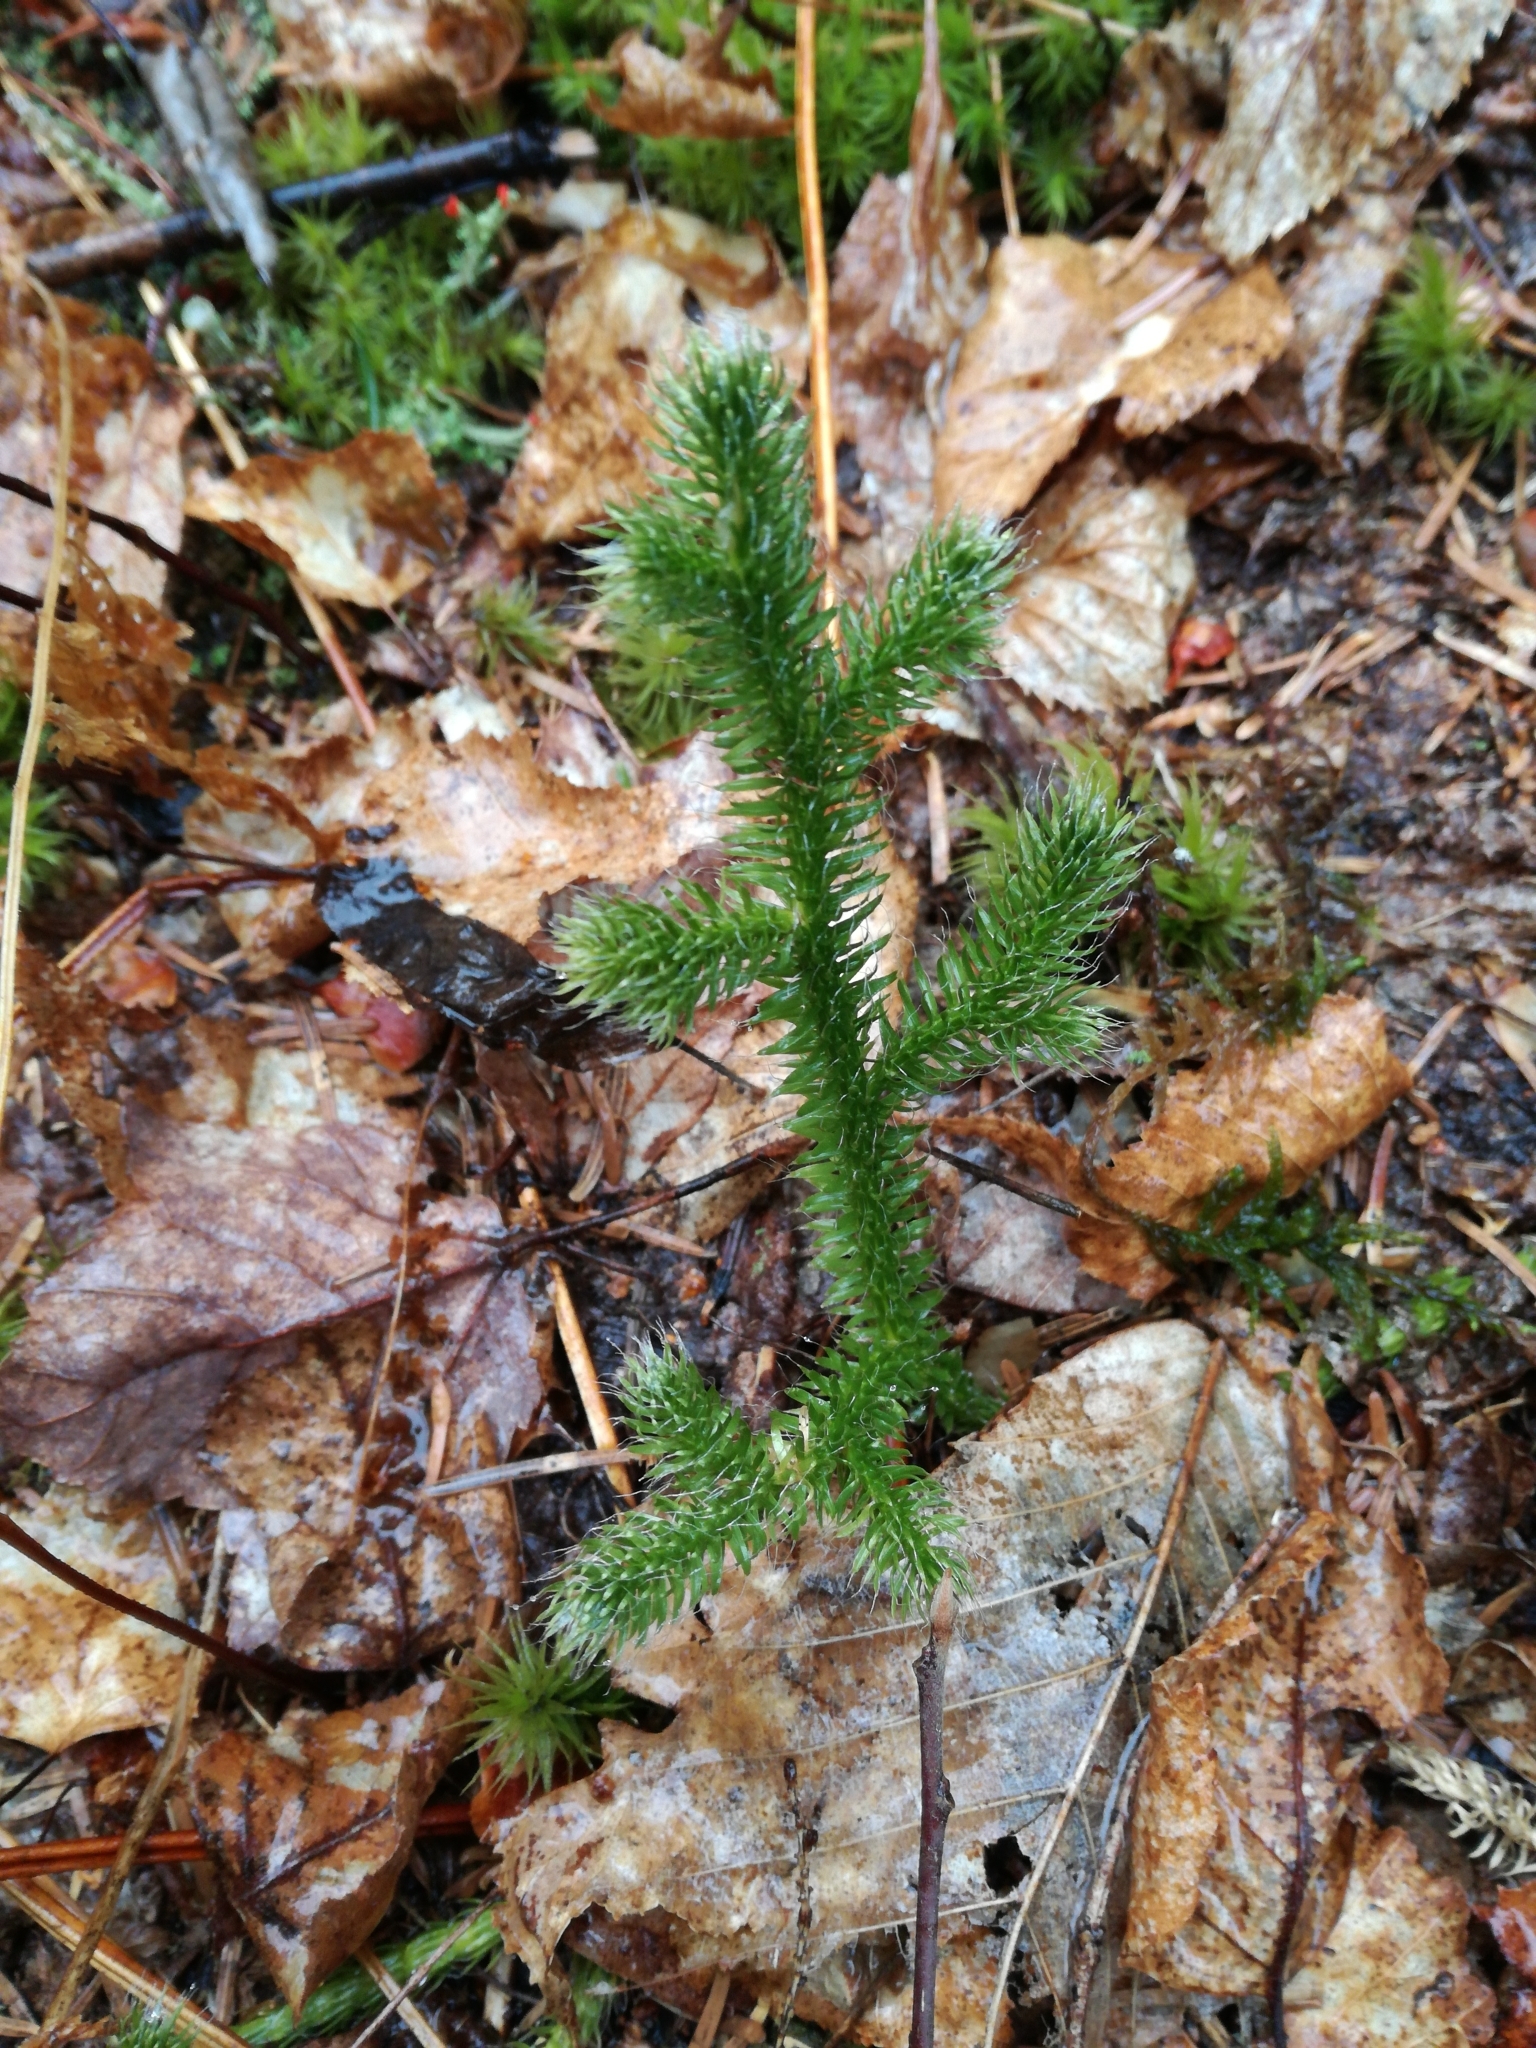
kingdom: Plantae
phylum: Tracheophyta
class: Lycopodiopsida
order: Lycopodiales
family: Lycopodiaceae
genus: Lycopodium
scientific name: Lycopodium clavatum
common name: Stag's-horn clubmoss
